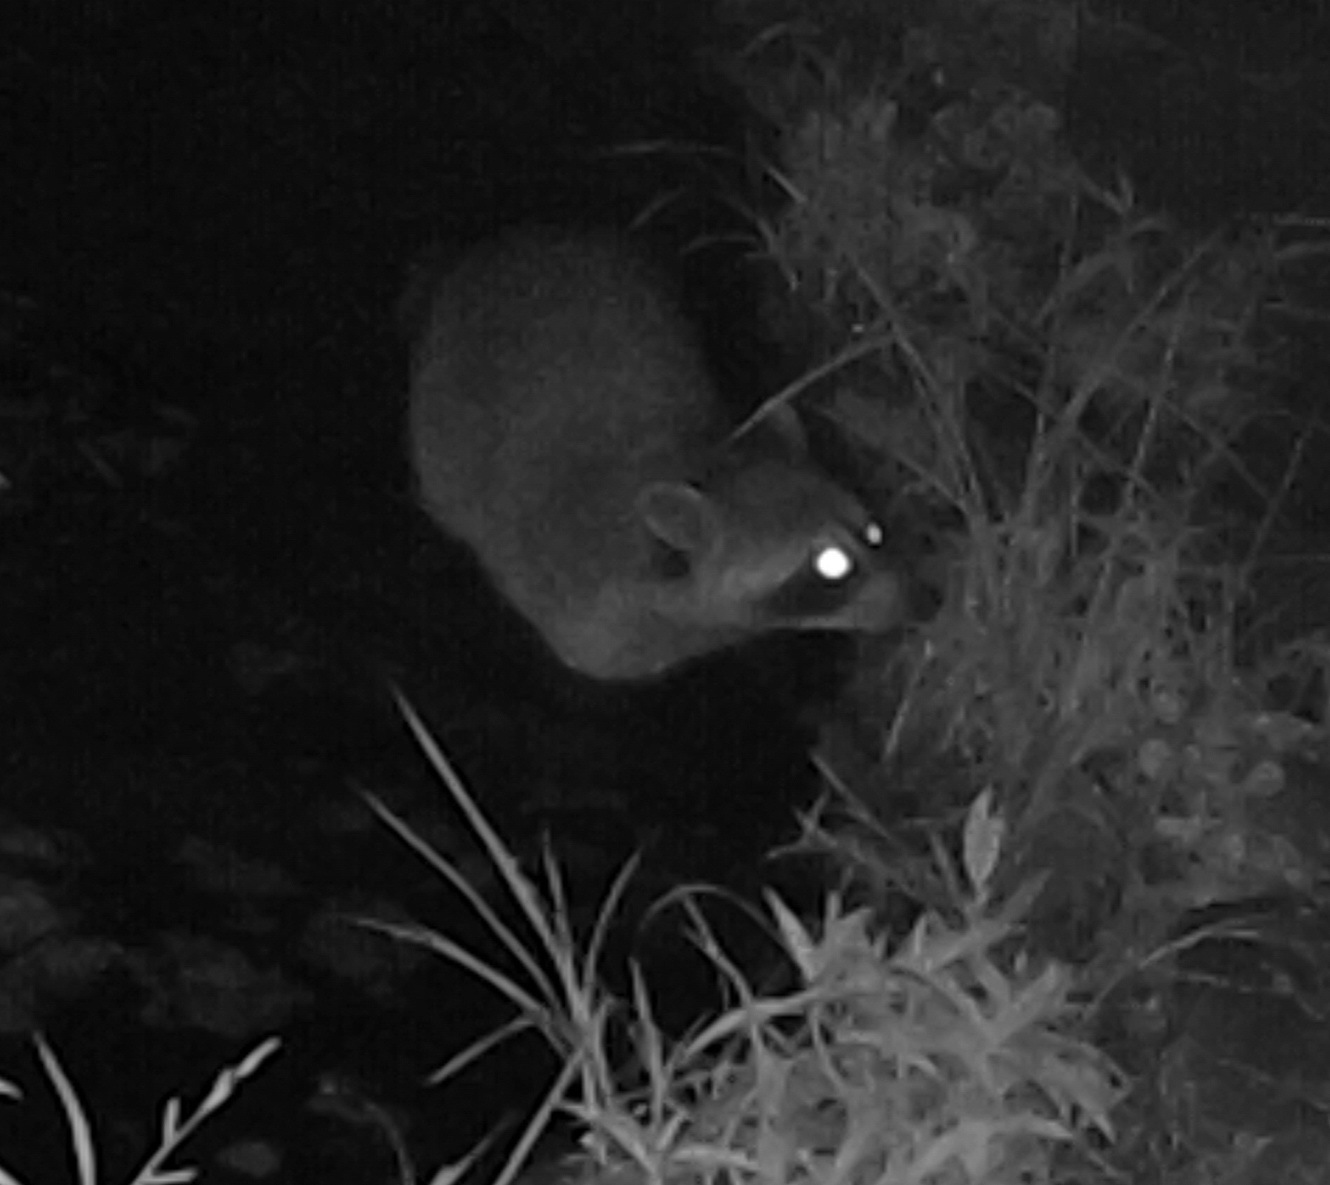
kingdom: Animalia
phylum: Chordata
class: Mammalia
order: Carnivora
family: Procyonidae
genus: Procyon
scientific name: Procyon lotor
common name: Raccoon
